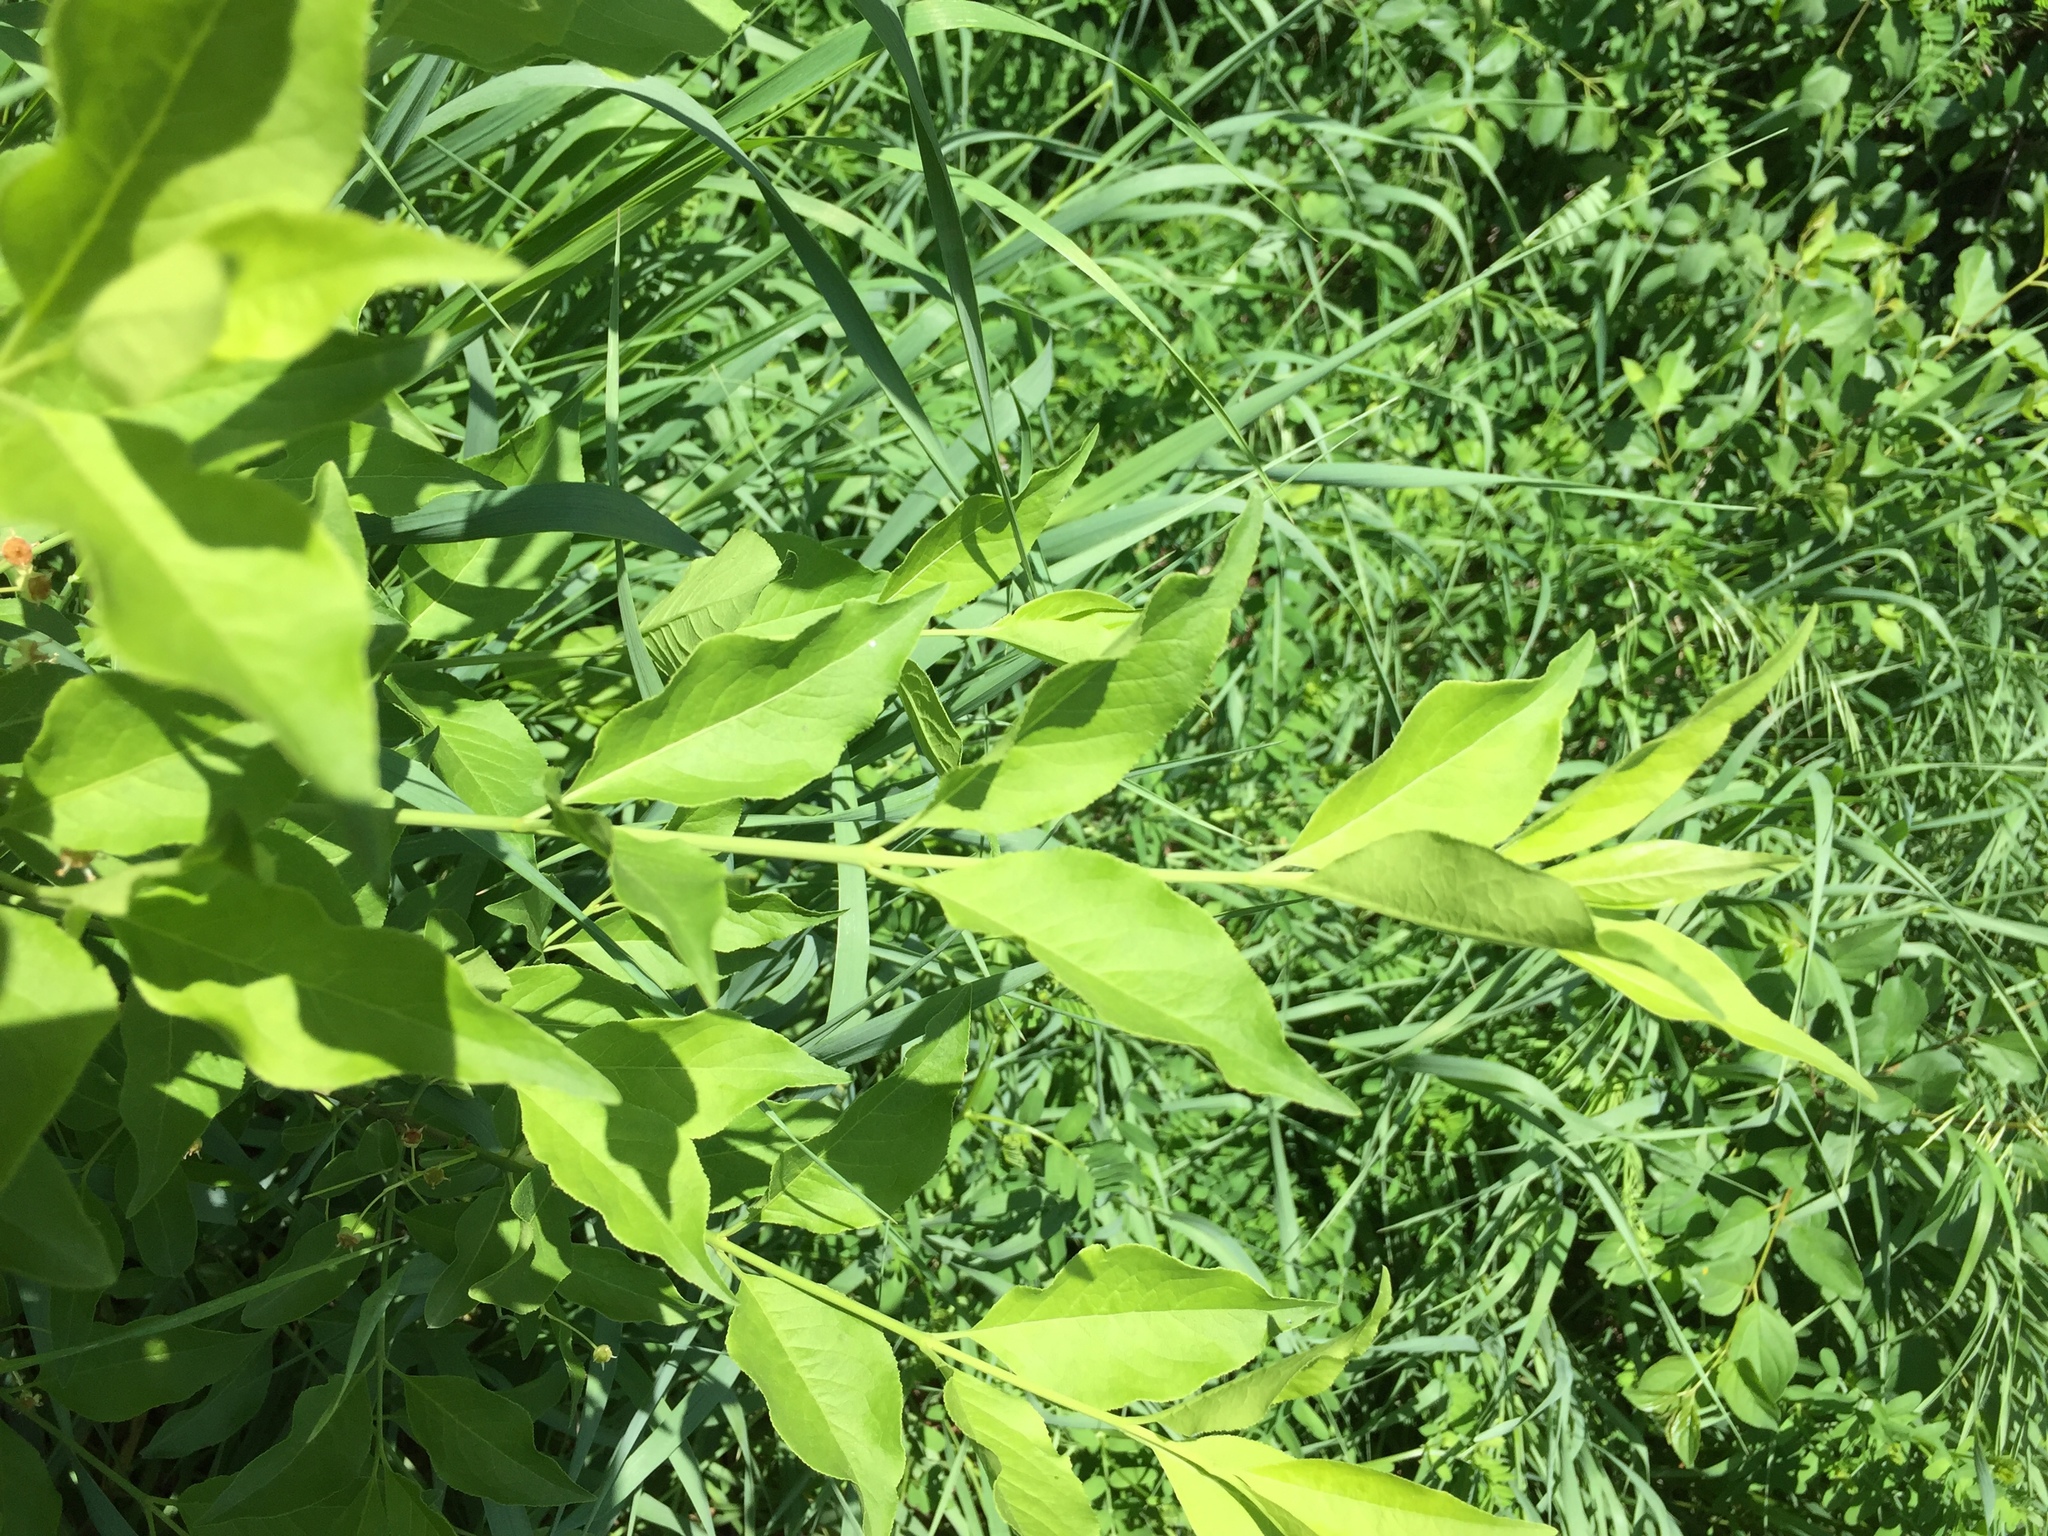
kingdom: Plantae
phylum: Tracheophyta
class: Magnoliopsida
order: Celastrales
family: Celastraceae
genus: Euonymus
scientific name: Euonymus europaeus
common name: Spindle
